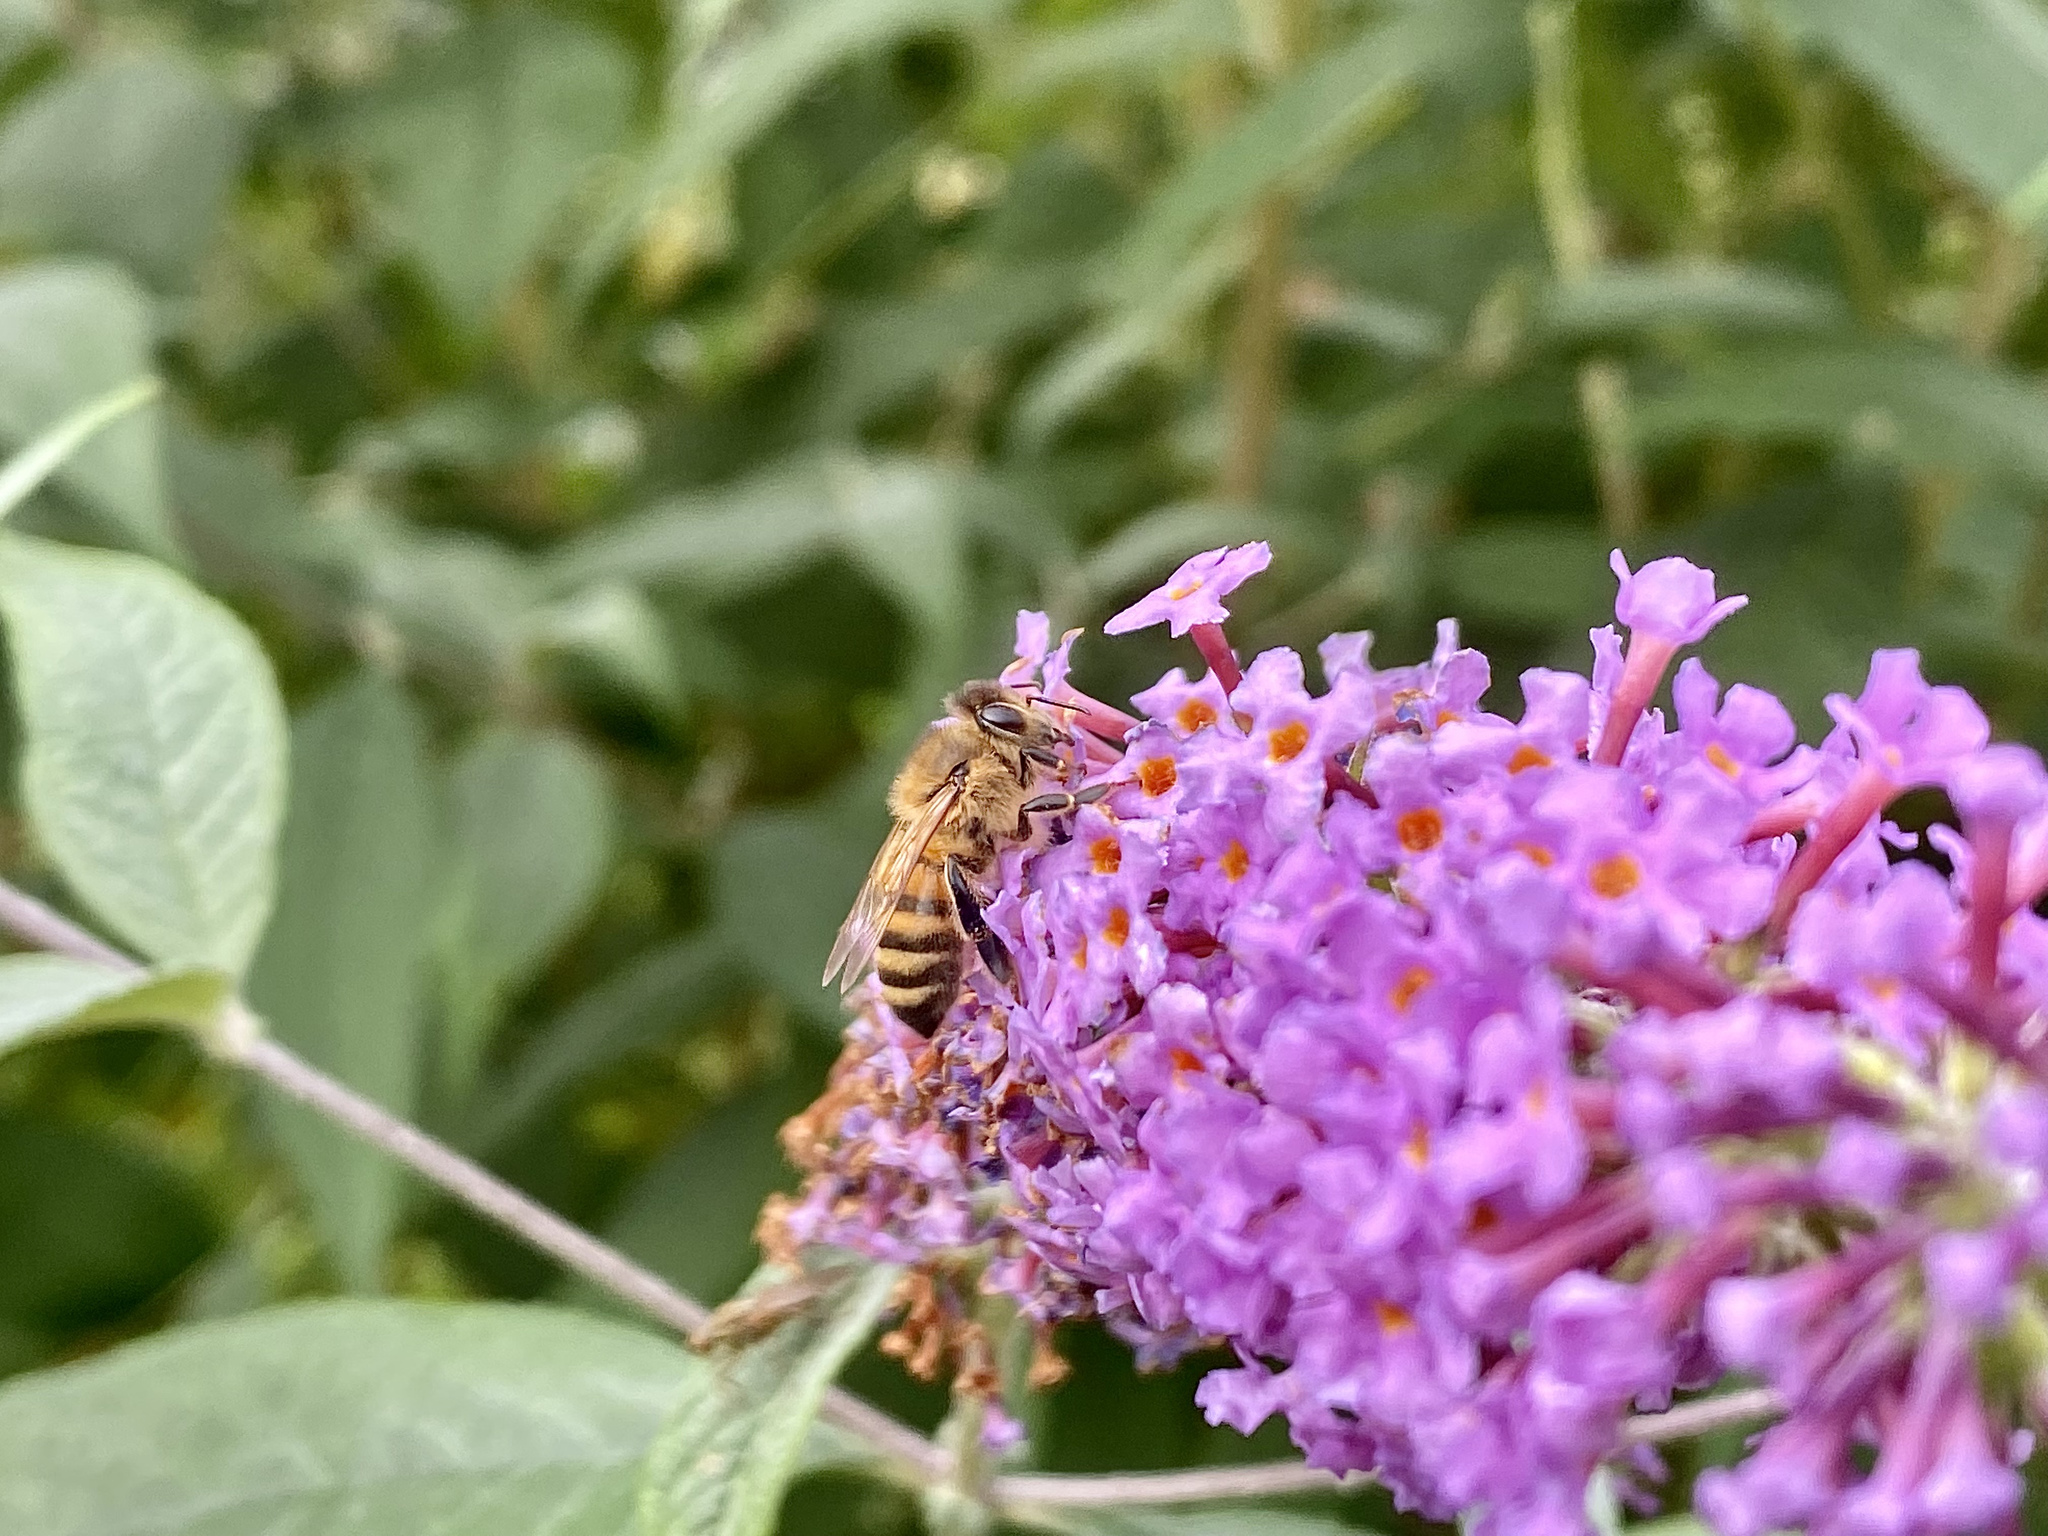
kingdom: Animalia
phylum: Arthropoda
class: Insecta
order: Hymenoptera
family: Apidae
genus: Apis
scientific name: Apis mellifera
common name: Honey bee
